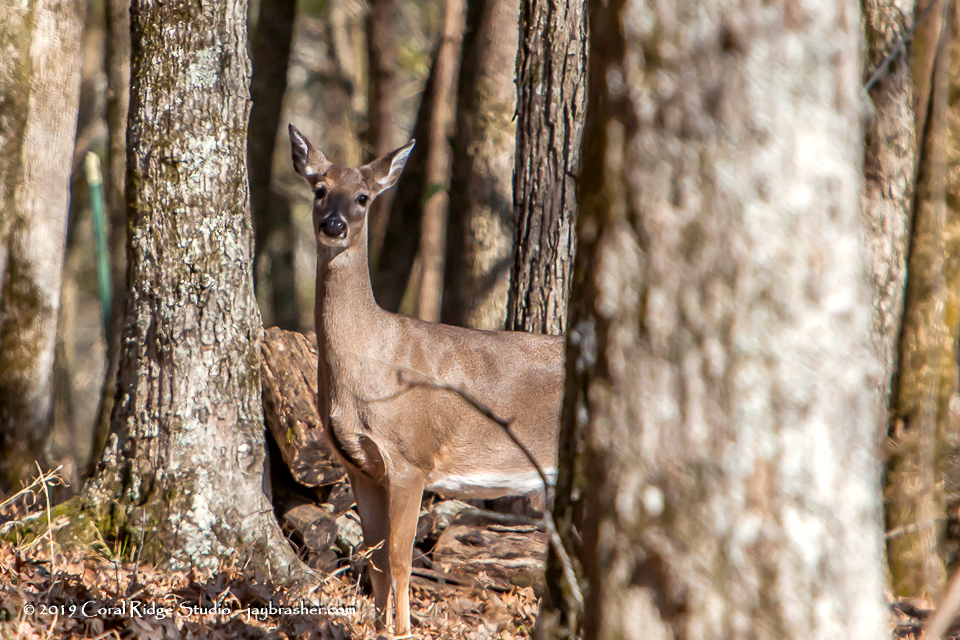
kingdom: Animalia
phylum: Chordata
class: Mammalia
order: Artiodactyla
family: Cervidae
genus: Odocoileus
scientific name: Odocoileus virginianus
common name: White-tailed deer
